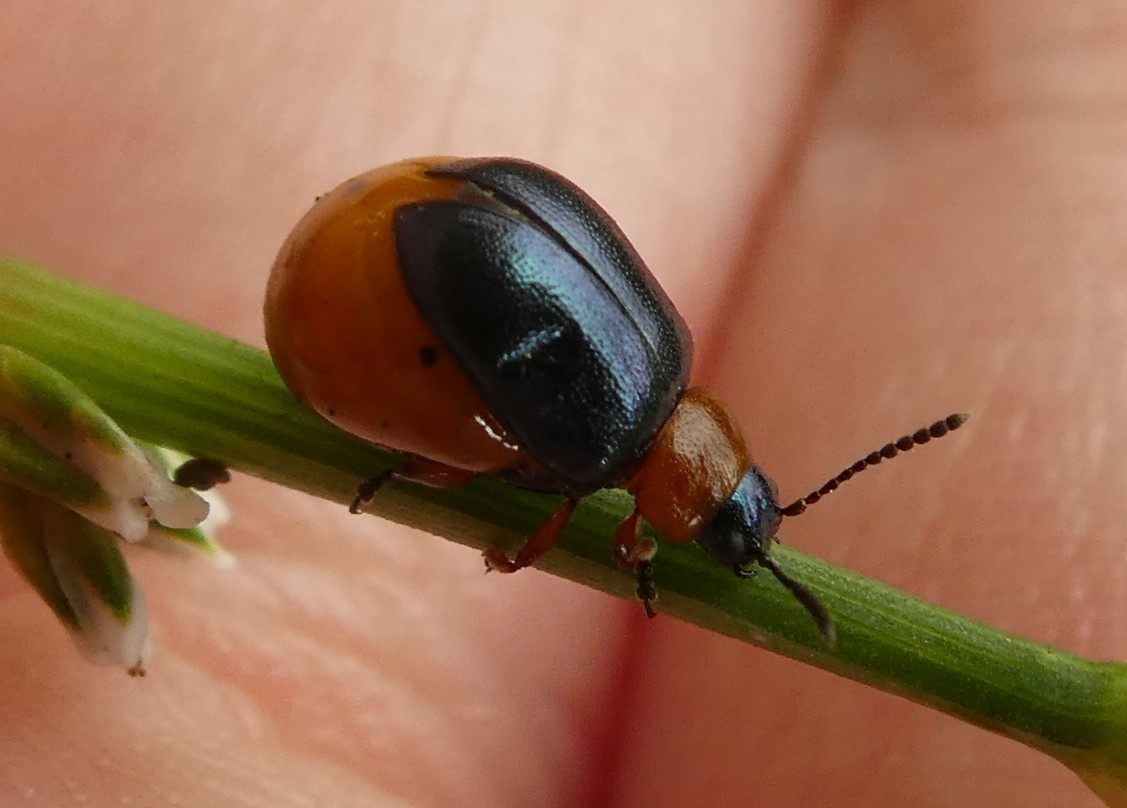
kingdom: Animalia
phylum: Arthropoda
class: Insecta
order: Coleoptera
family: Chrysomelidae
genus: Gastrophysa
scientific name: Gastrophysa polygoni
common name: Knotweed leaf beetle
